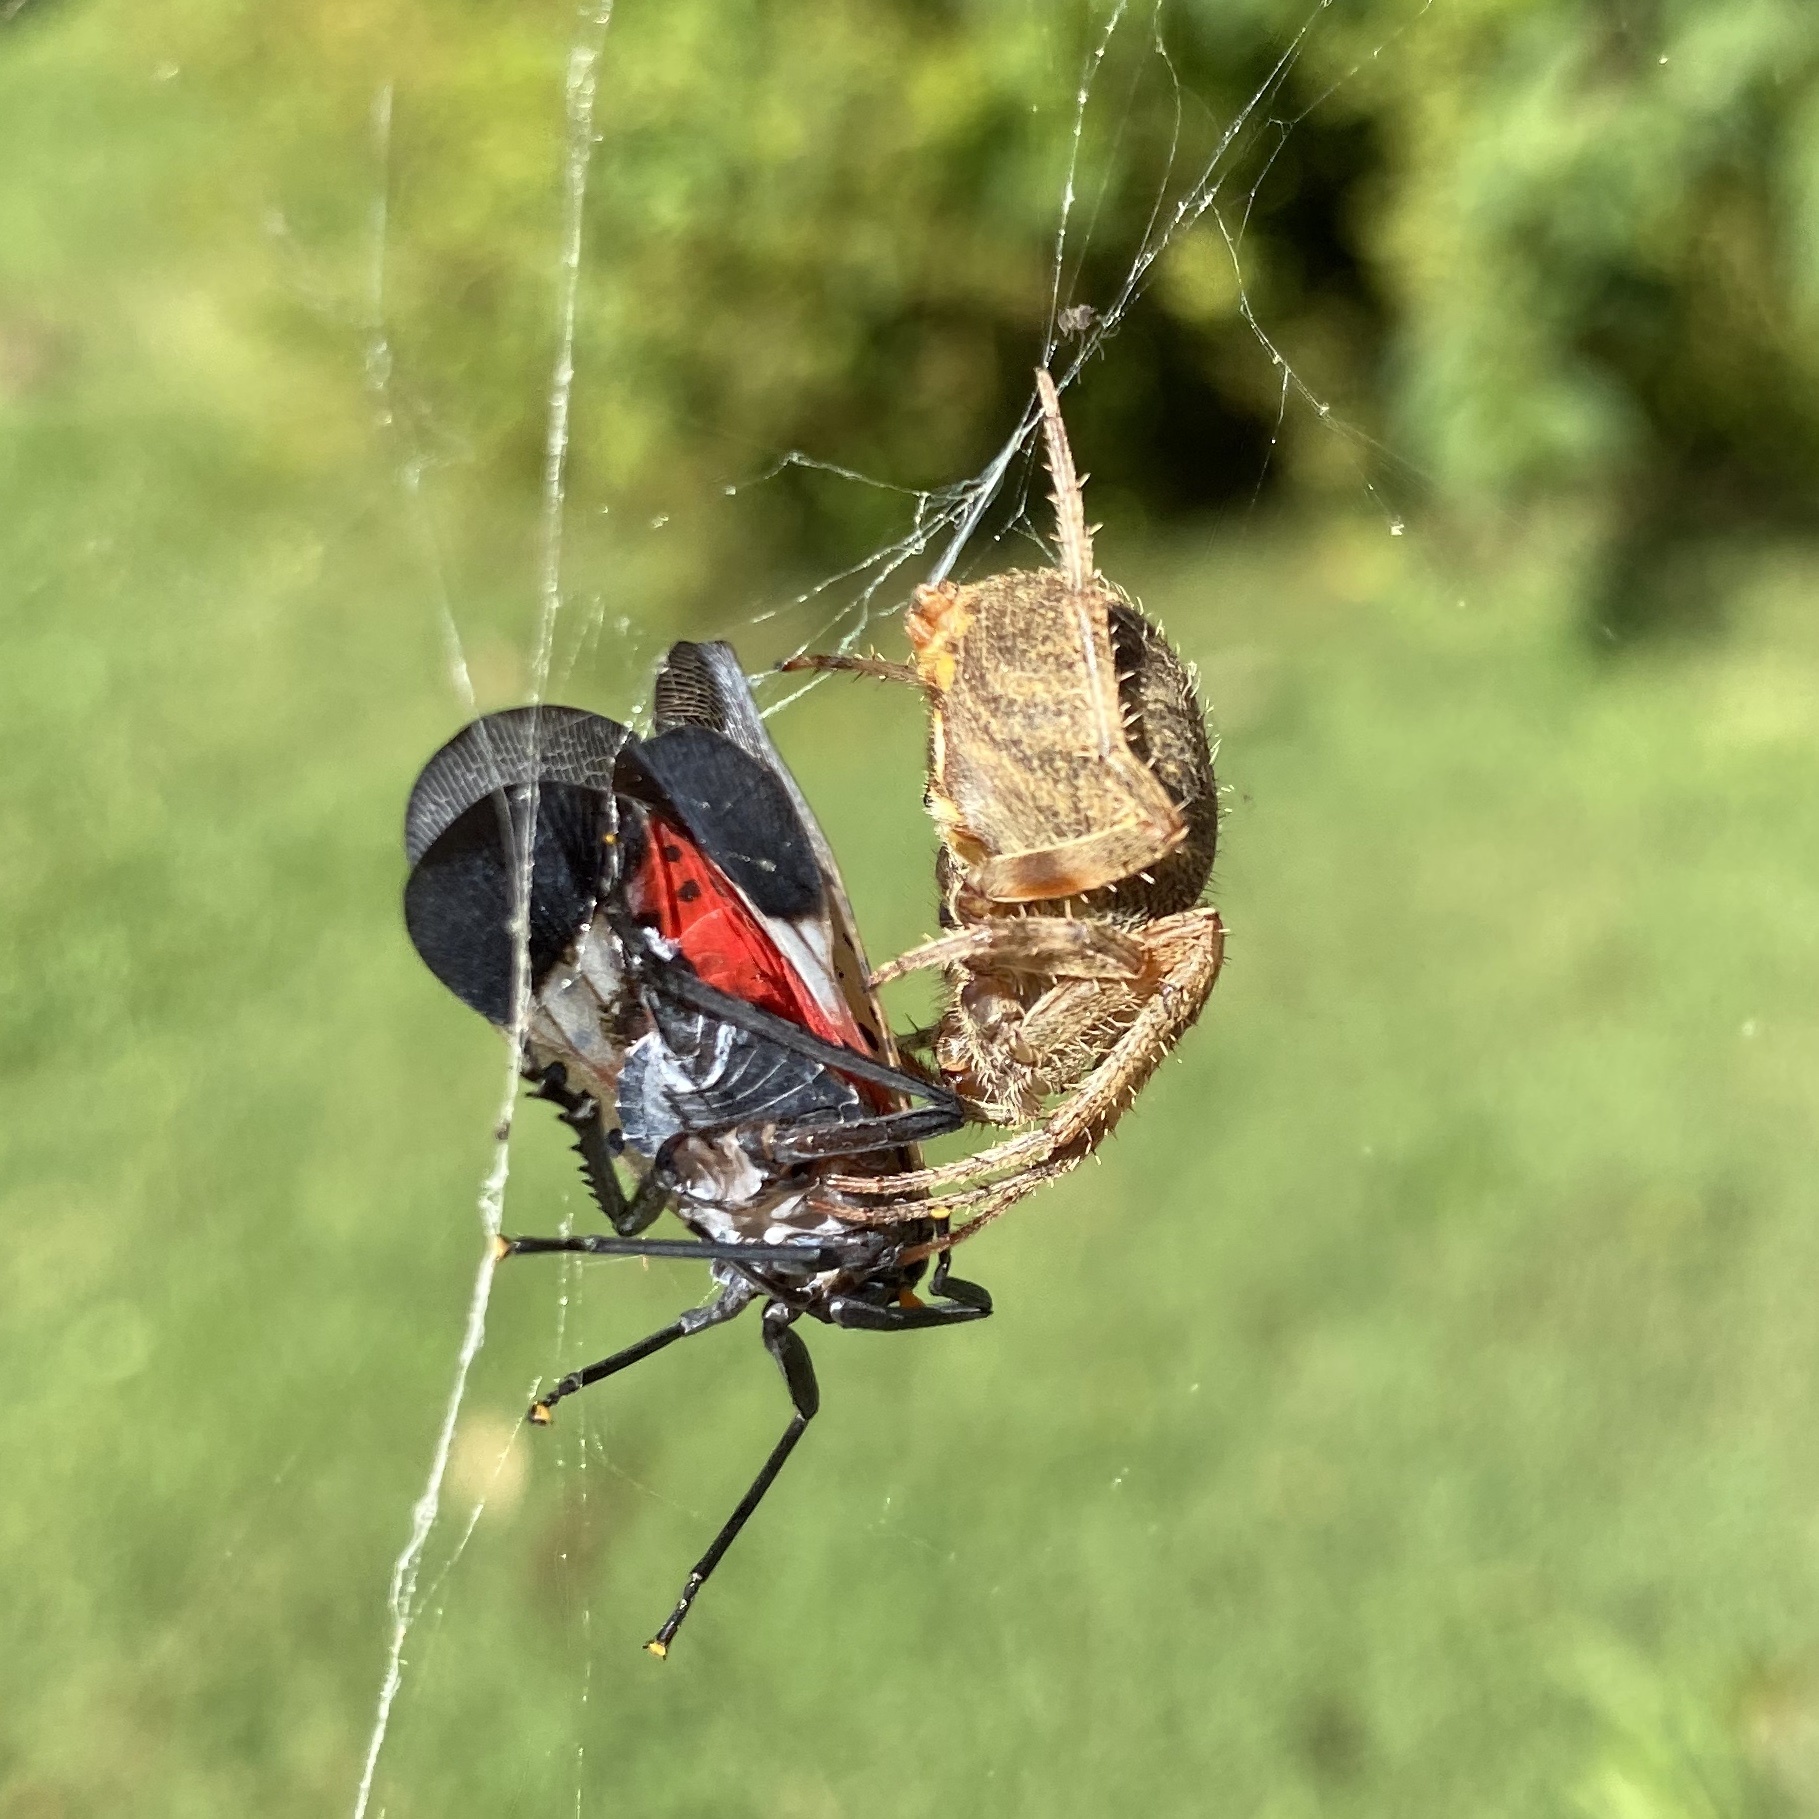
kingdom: Animalia
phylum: Arthropoda
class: Insecta
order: Hemiptera
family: Fulgoridae
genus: Lycorma
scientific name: Lycorma delicatula
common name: Spotted lanternfly
